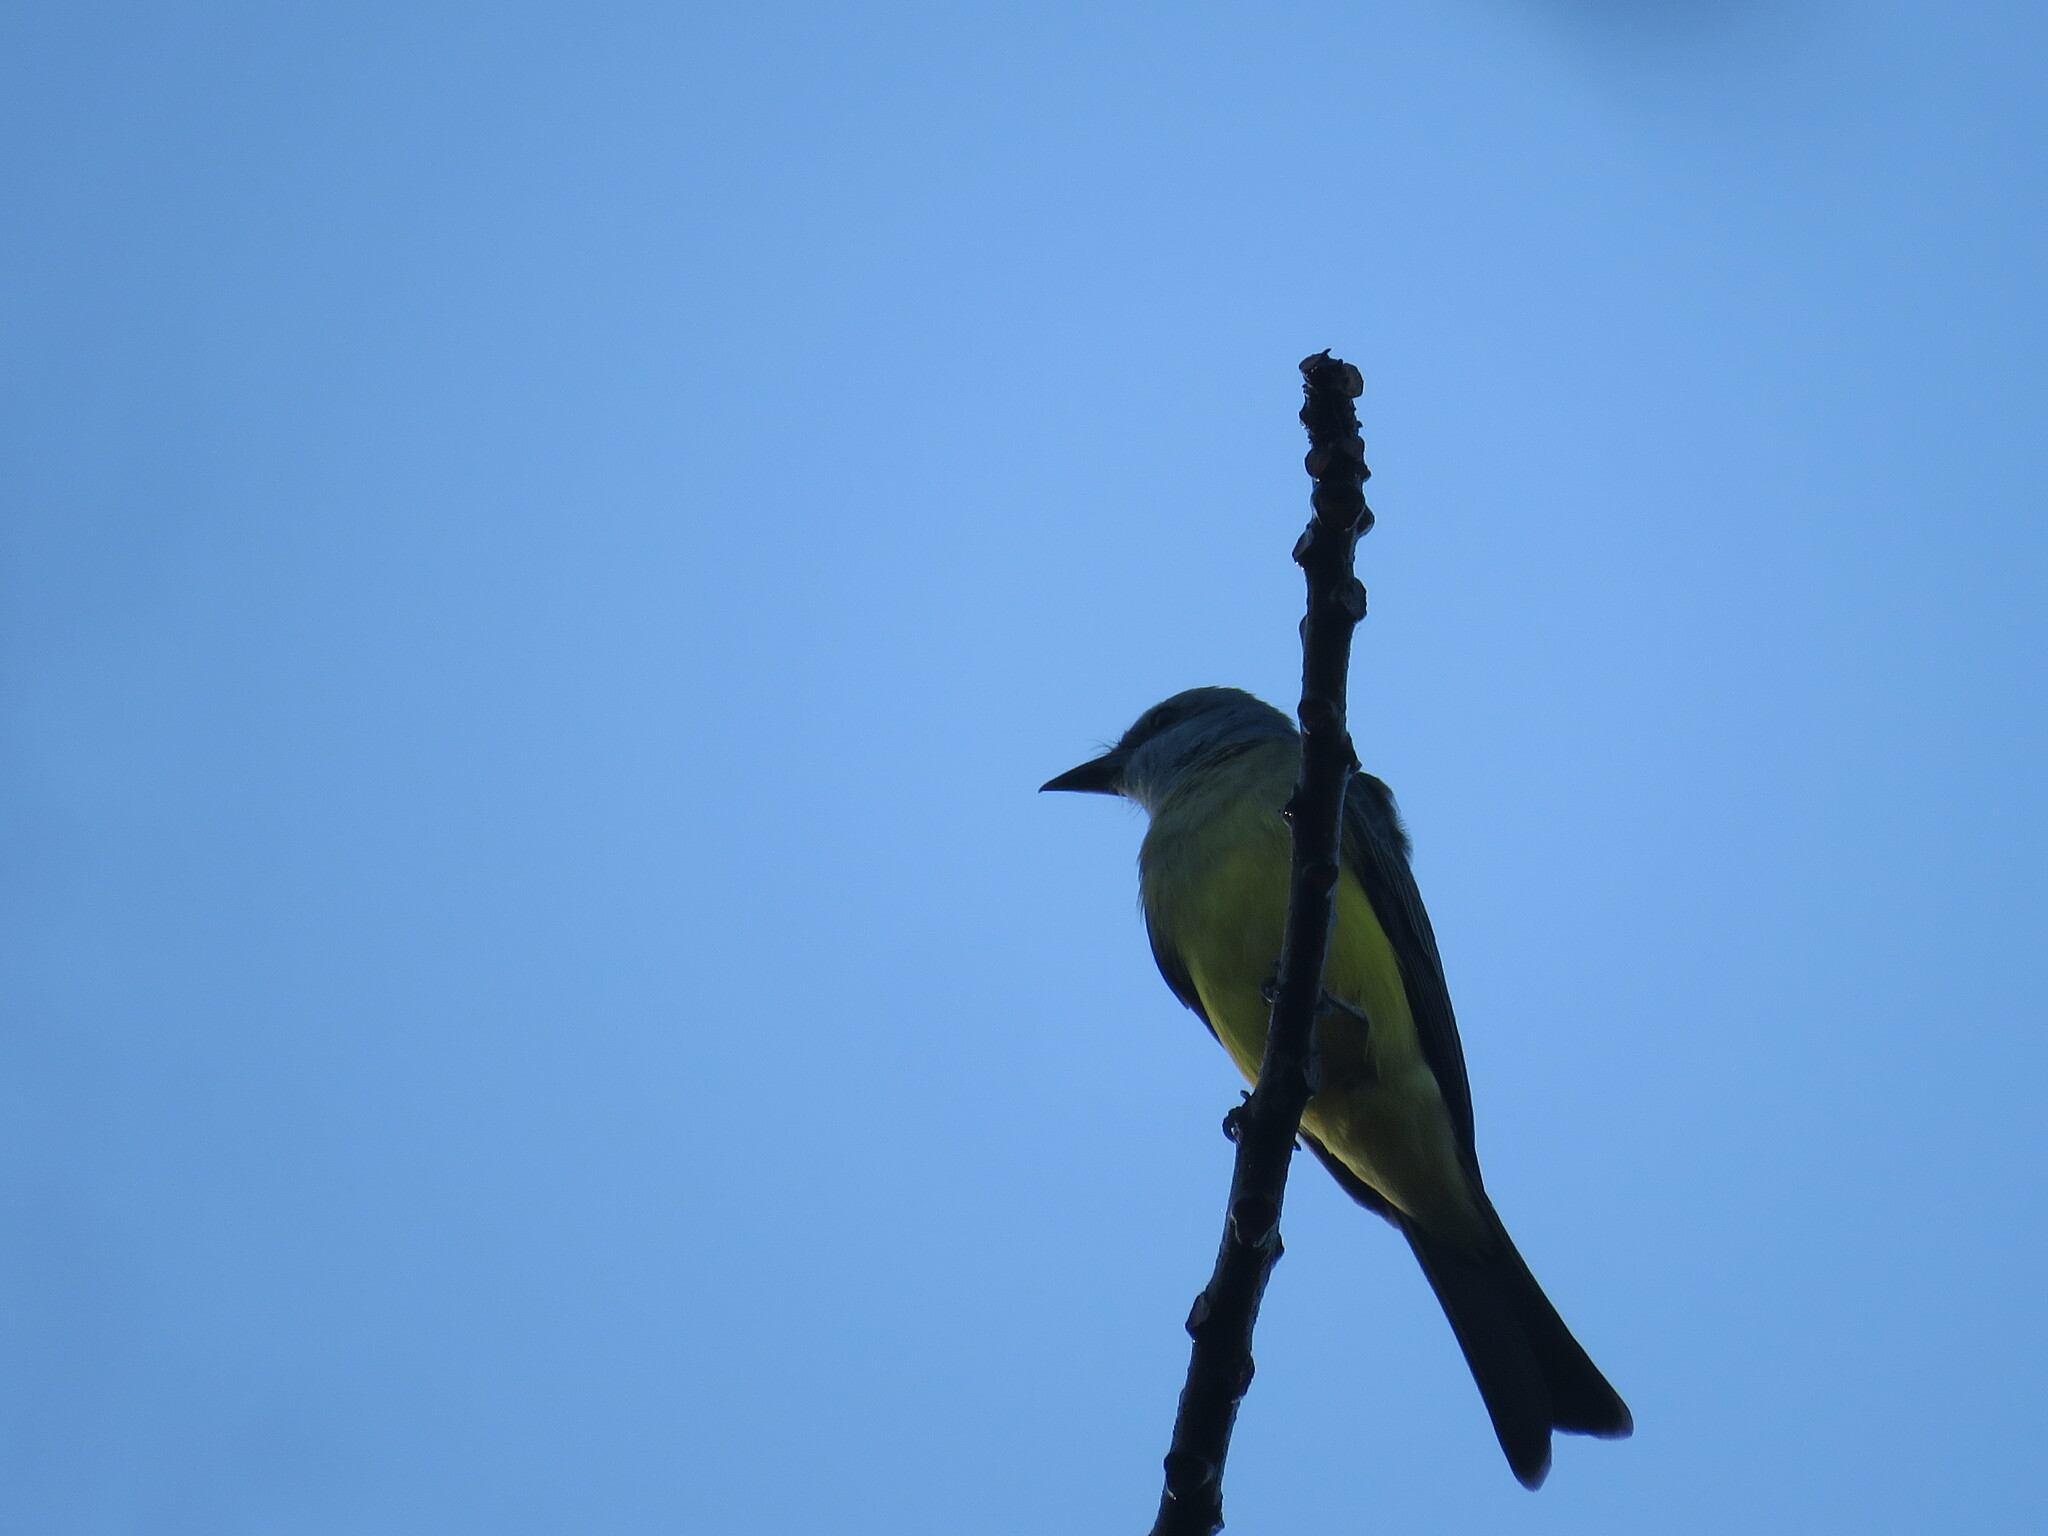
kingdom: Animalia
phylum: Chordata
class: Aves
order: Passeriformes
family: Tyrannidae
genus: Tyrannus
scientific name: Tyrannus melancholicus
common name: Tropical kingbird
